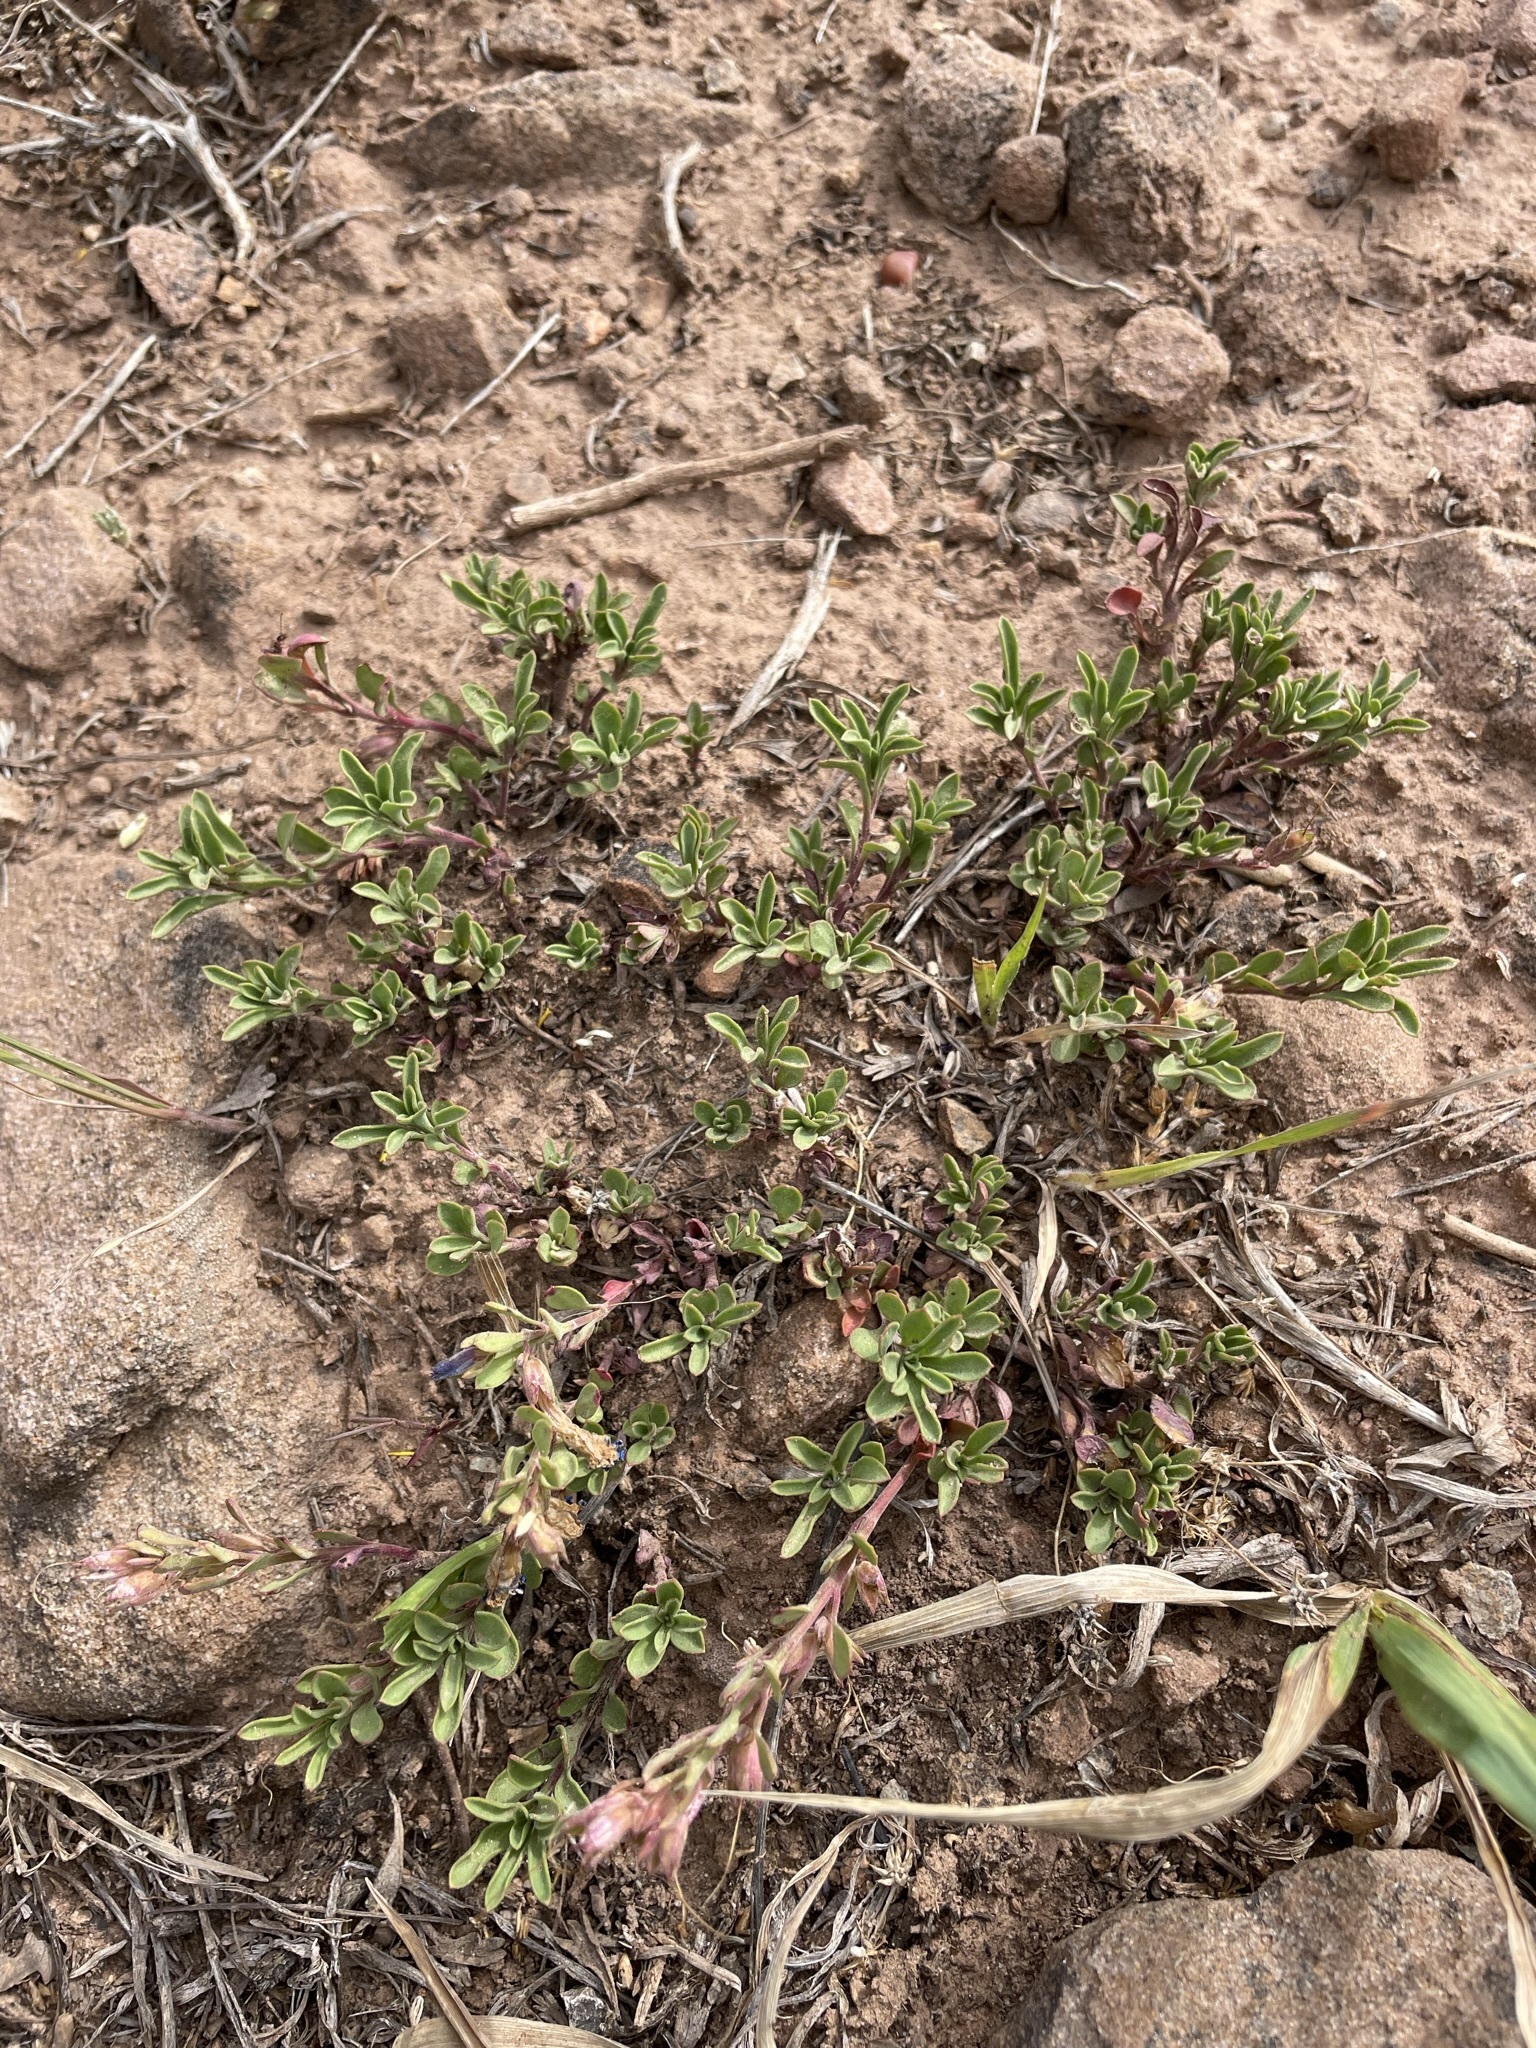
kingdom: Plantae
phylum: Tracheophyta
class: Magnoliopsida
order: Lamiales
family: Plantaginaceae
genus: Penstemon
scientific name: Penstemon crandallii
